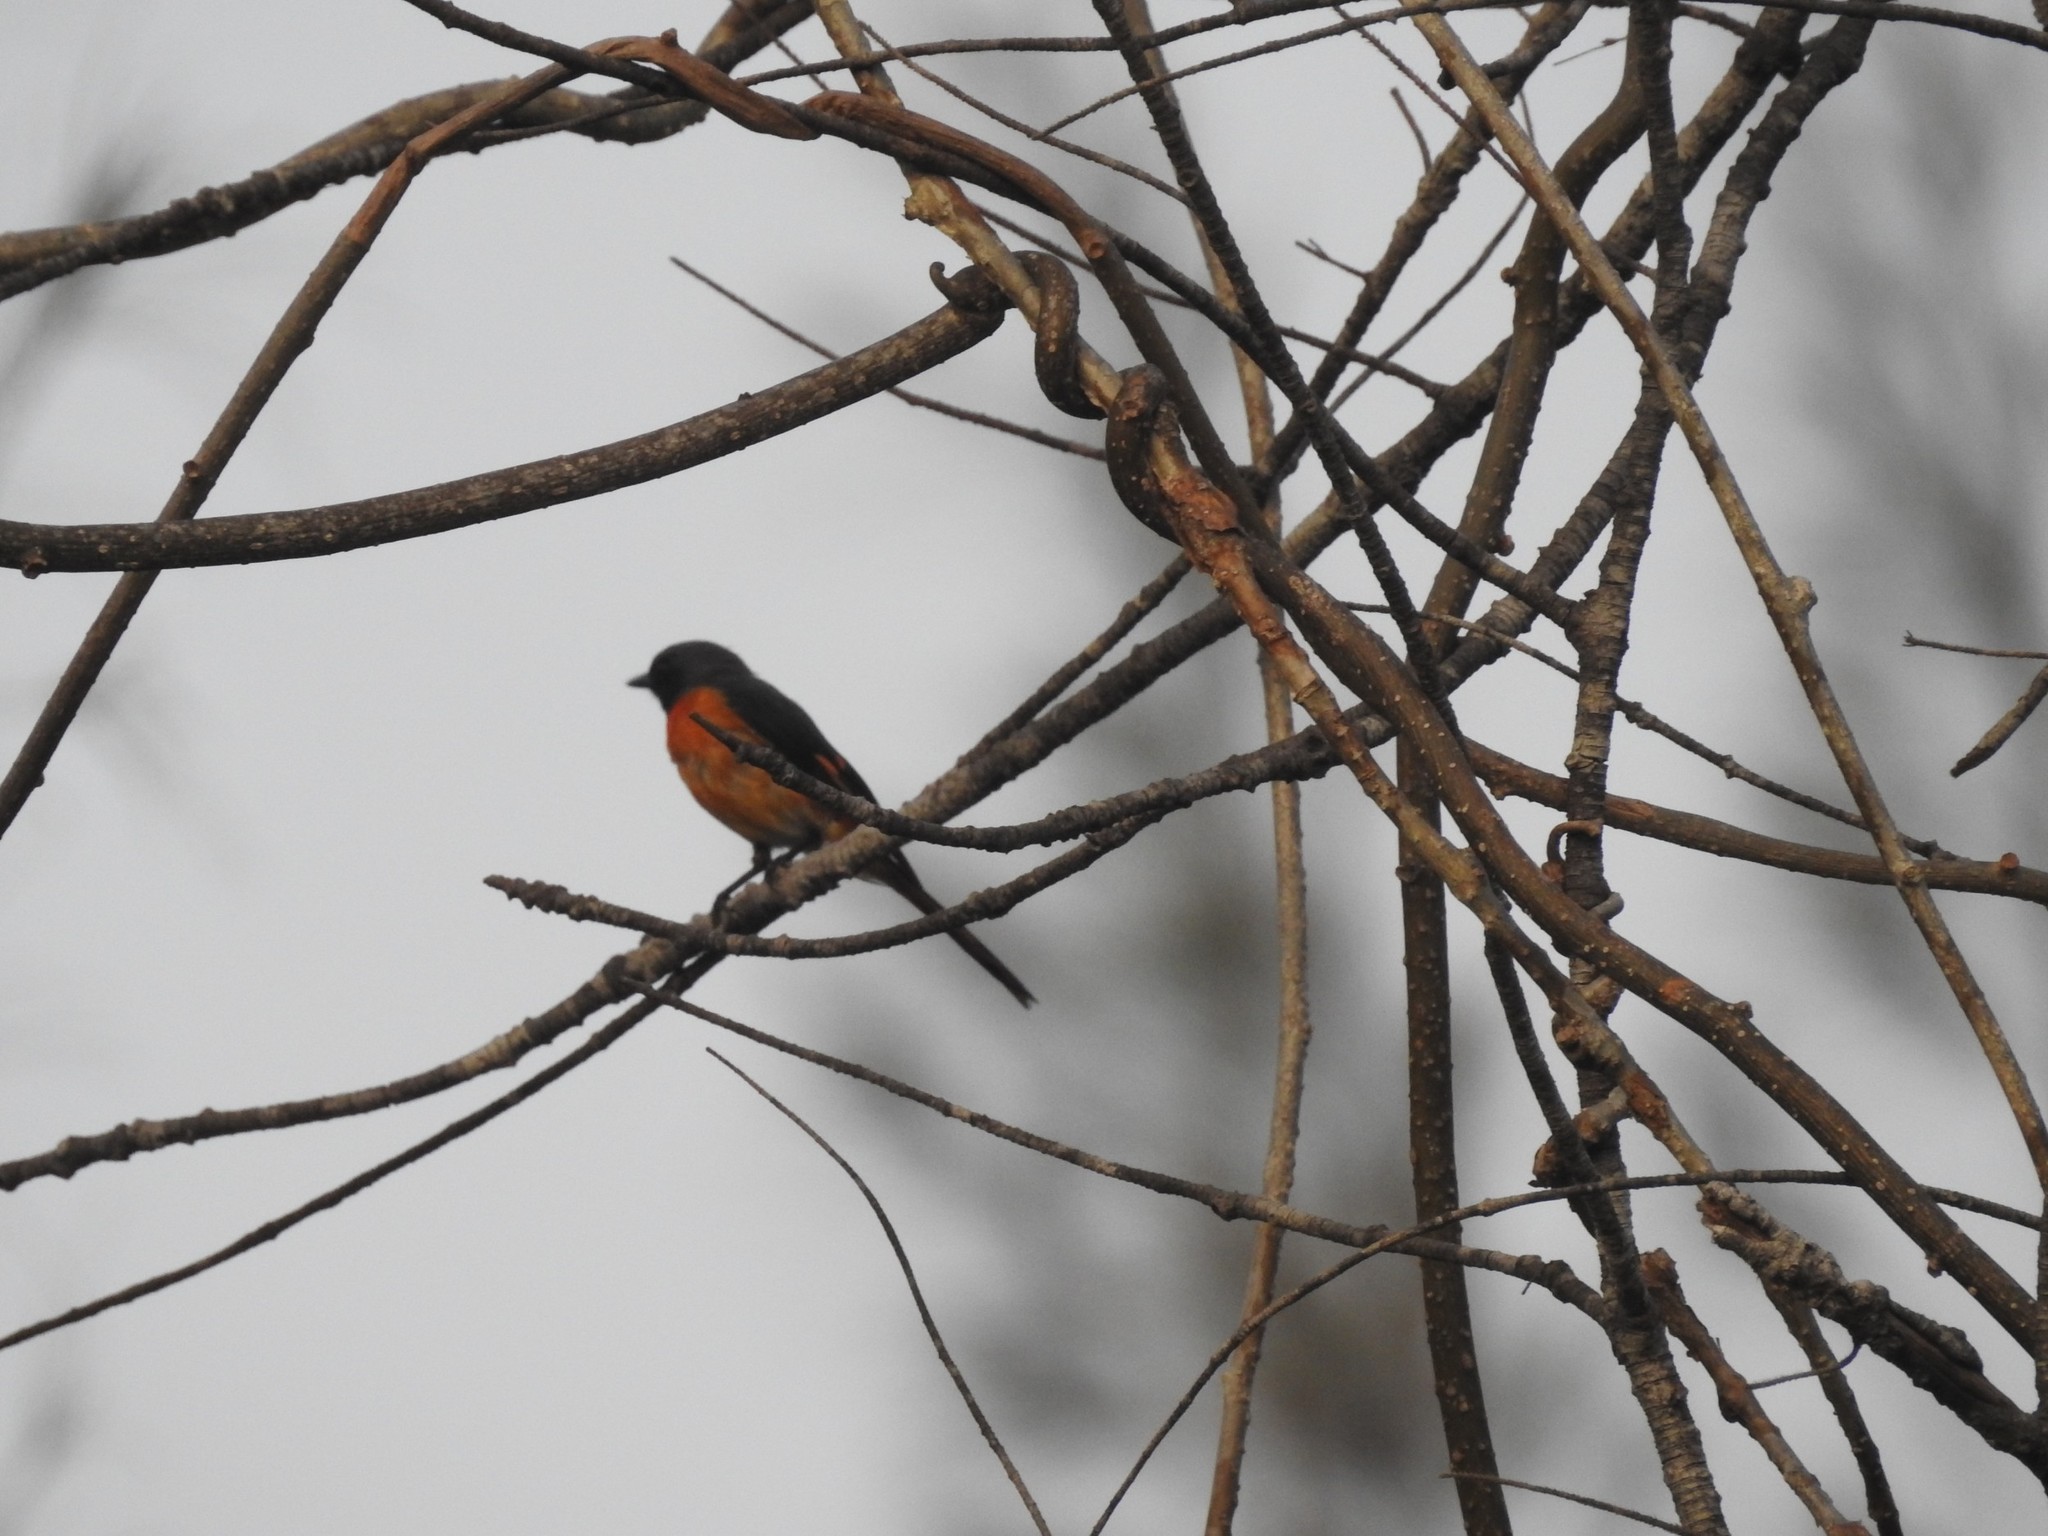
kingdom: Animalia
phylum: Chordata
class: Aves
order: Passeriformes
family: Campephagidae
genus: Pericrocotus
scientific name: Pericrocotus cinnamomeus
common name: Small minivet
